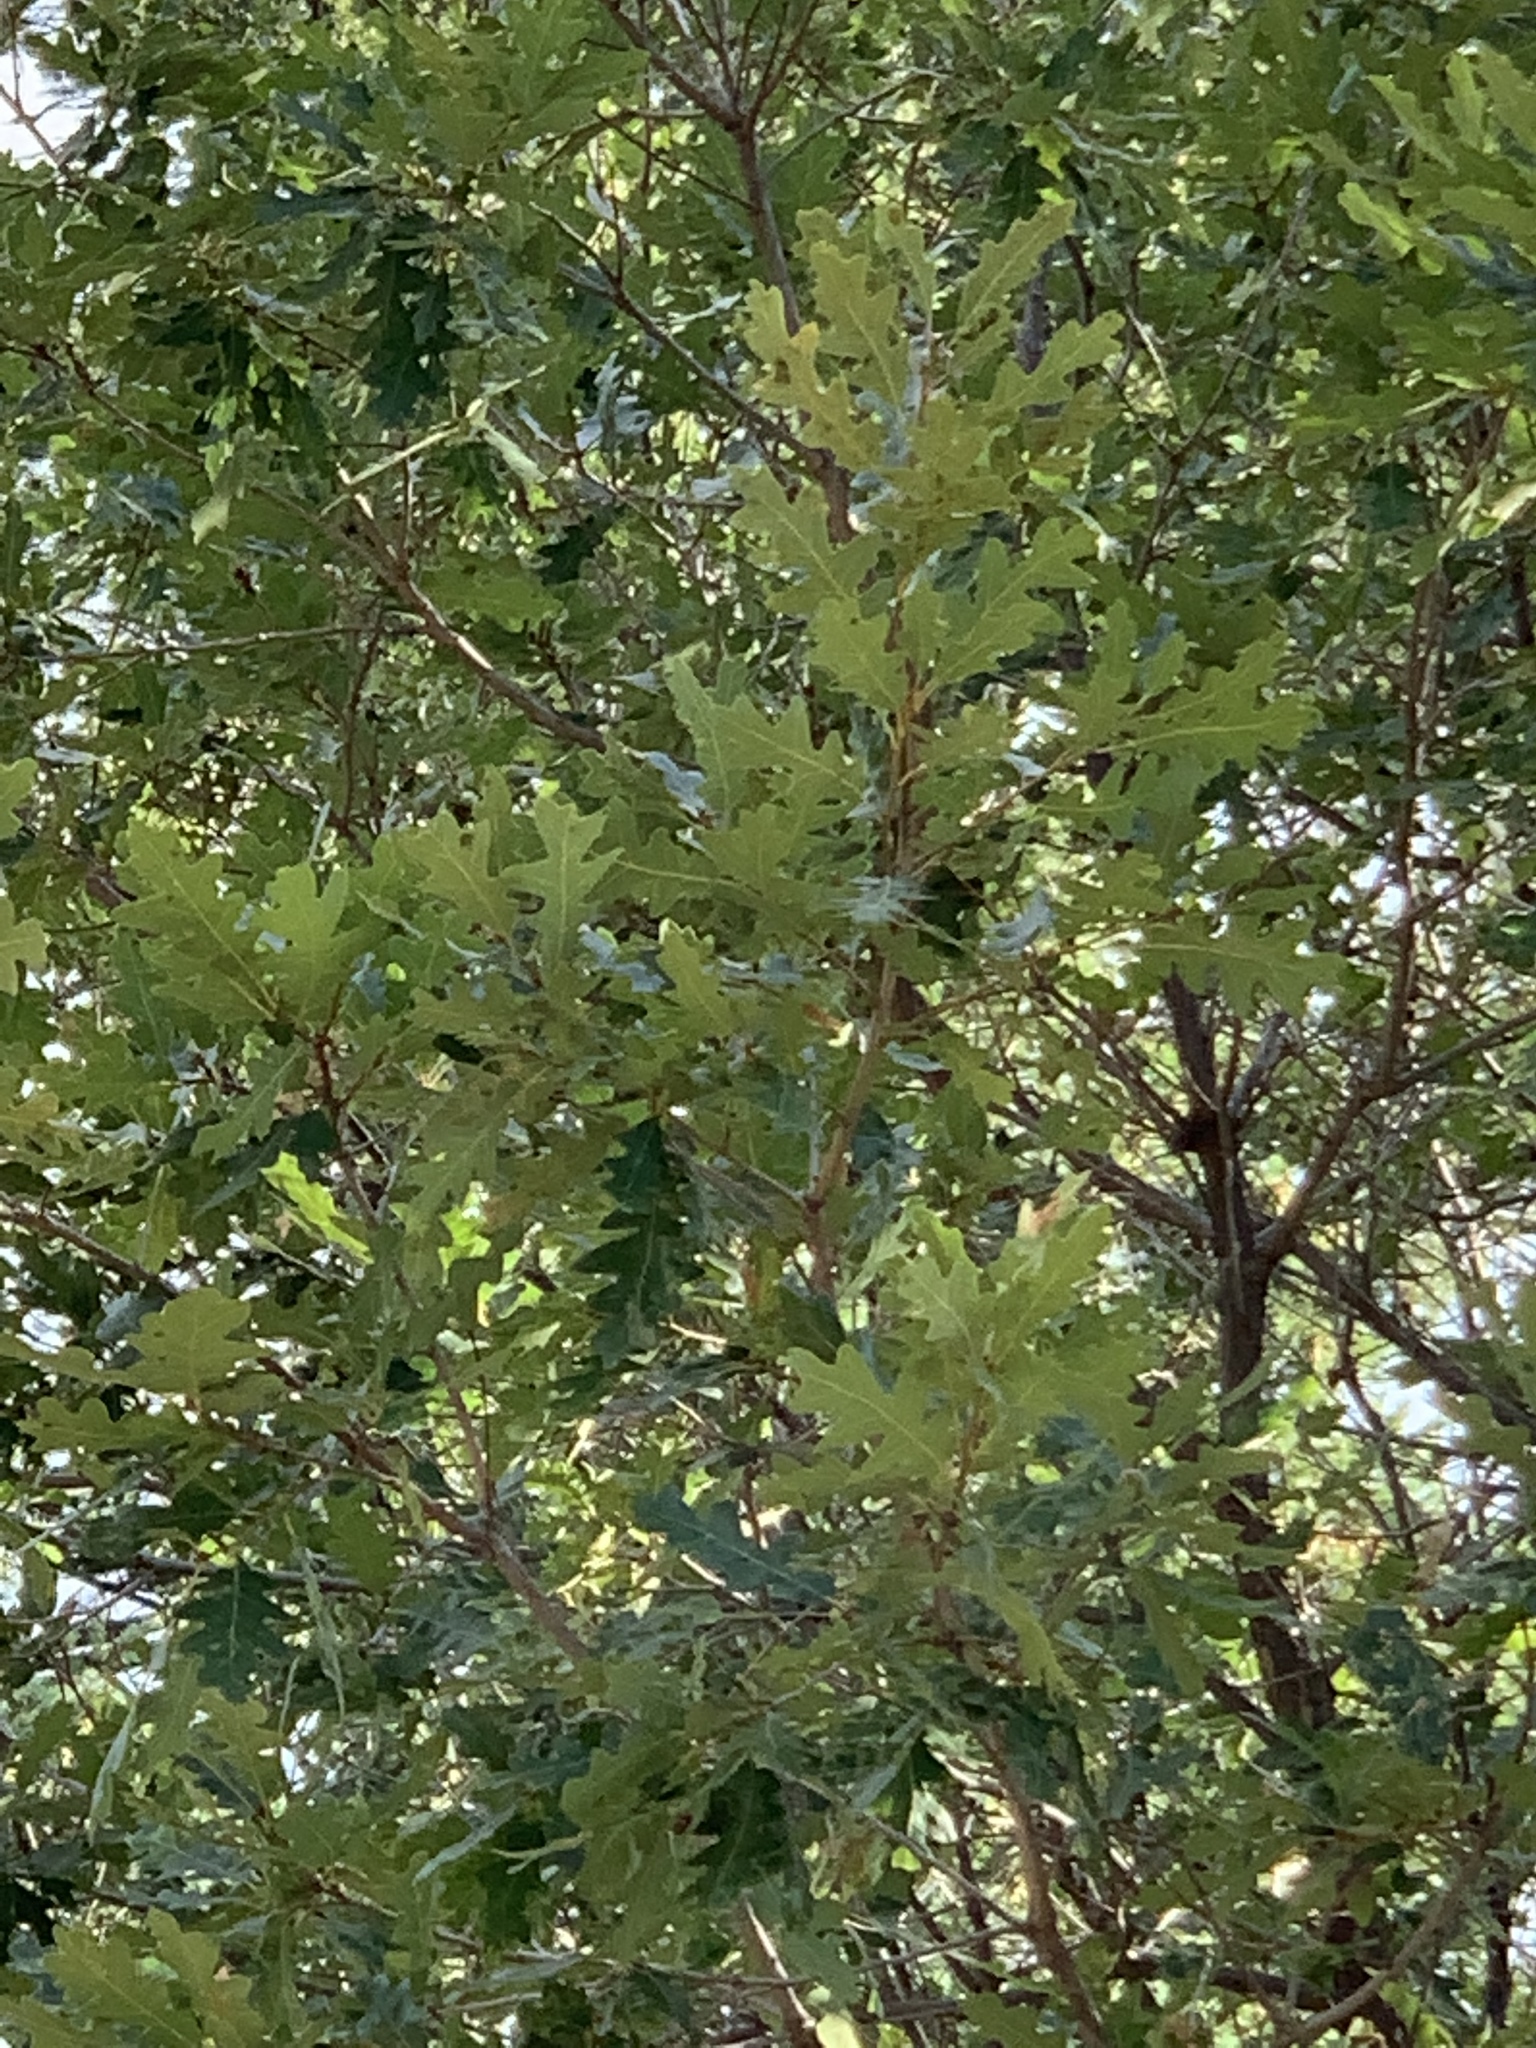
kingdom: Plantae
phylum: Tracheophyta
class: Magnoliopsida
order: Fagales
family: Fagaceae
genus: Quercus
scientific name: Quercus gambelii
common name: Gambel oak
